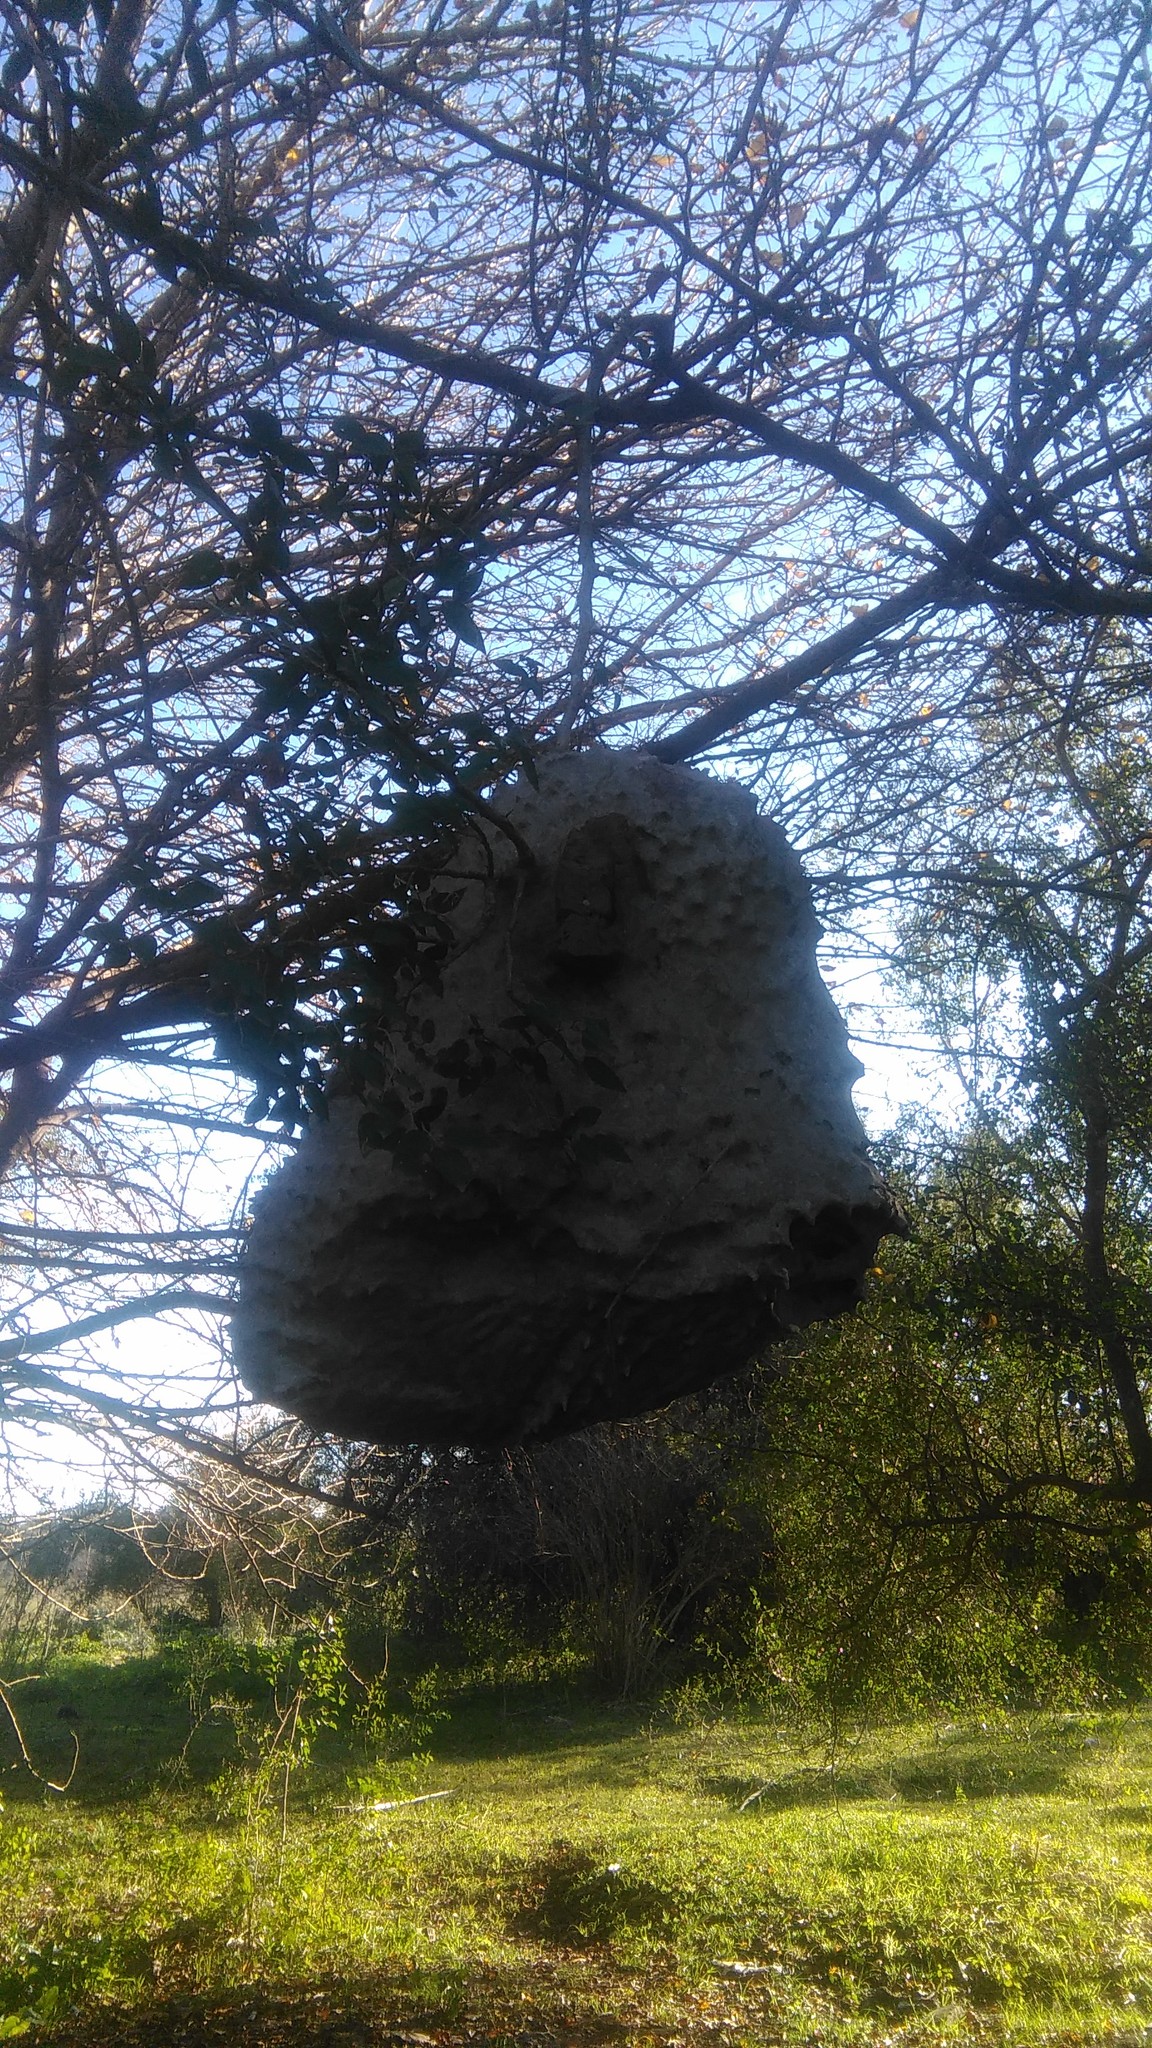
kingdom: Animalia
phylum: Arthropoda
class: Insecta
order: Hymenoptera
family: Eumenidae
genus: Polybia
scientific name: Polybia scutellaris
